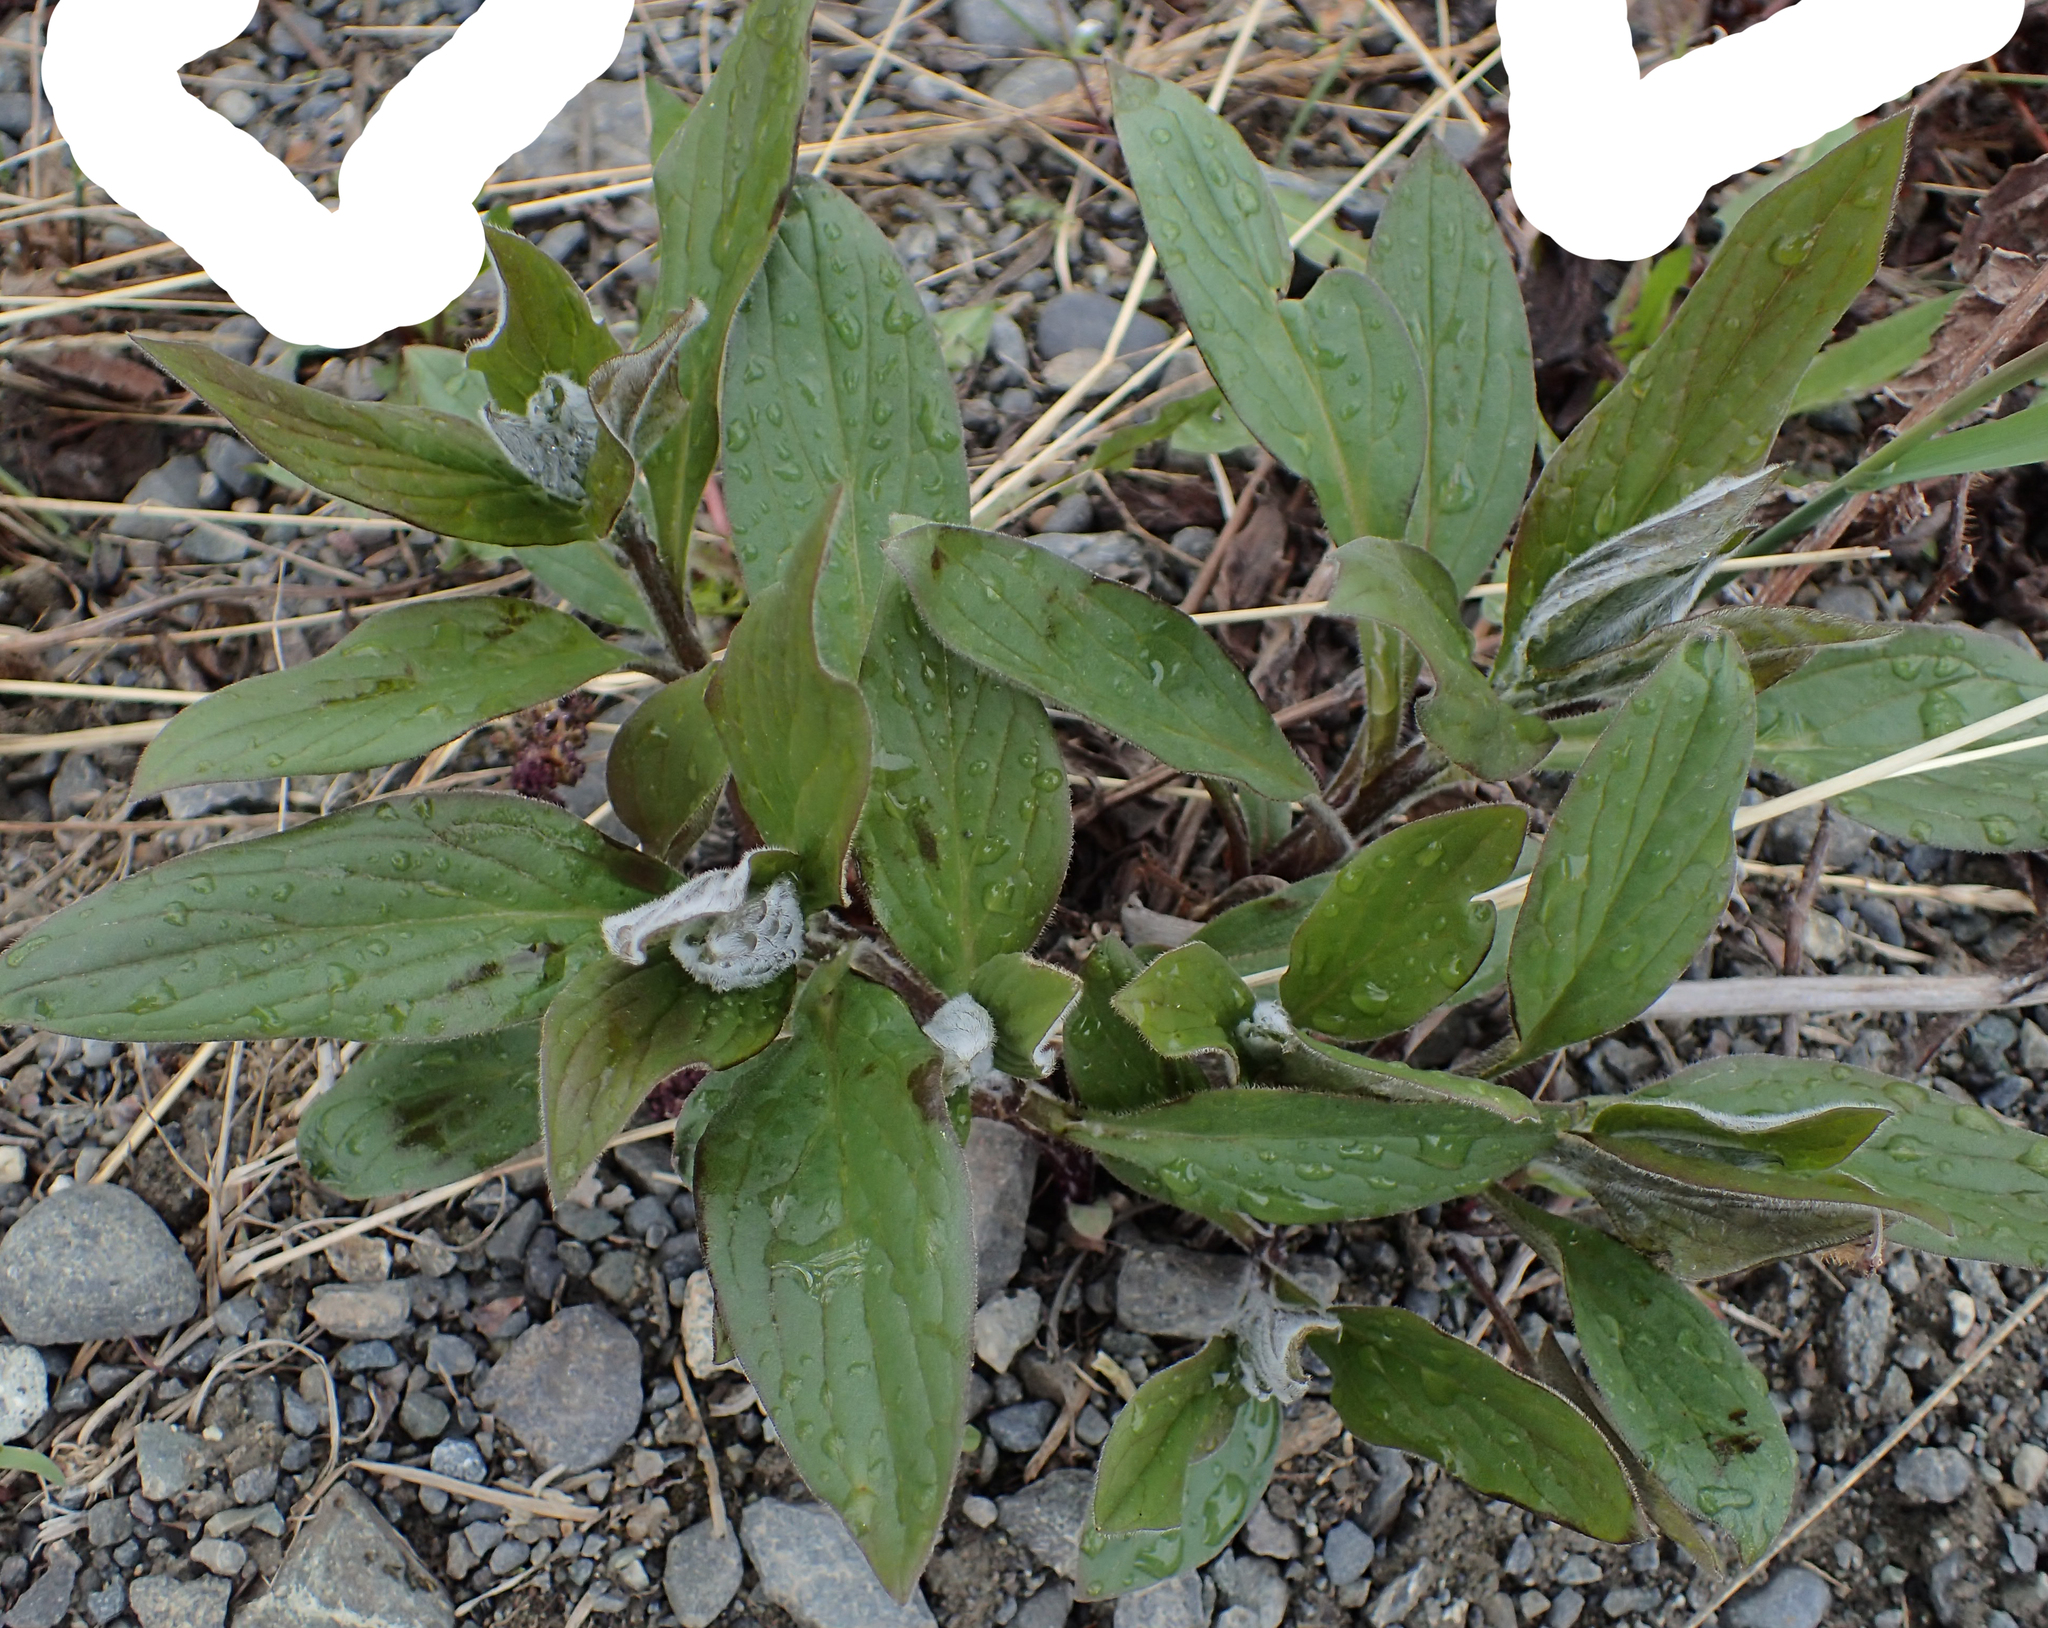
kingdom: Plantae
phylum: Tracheophyta
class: Magnoliopsida
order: Boraginales
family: Boraginaceae
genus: Mertensia
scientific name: Mertensia paniculata
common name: Panicled bluebells
